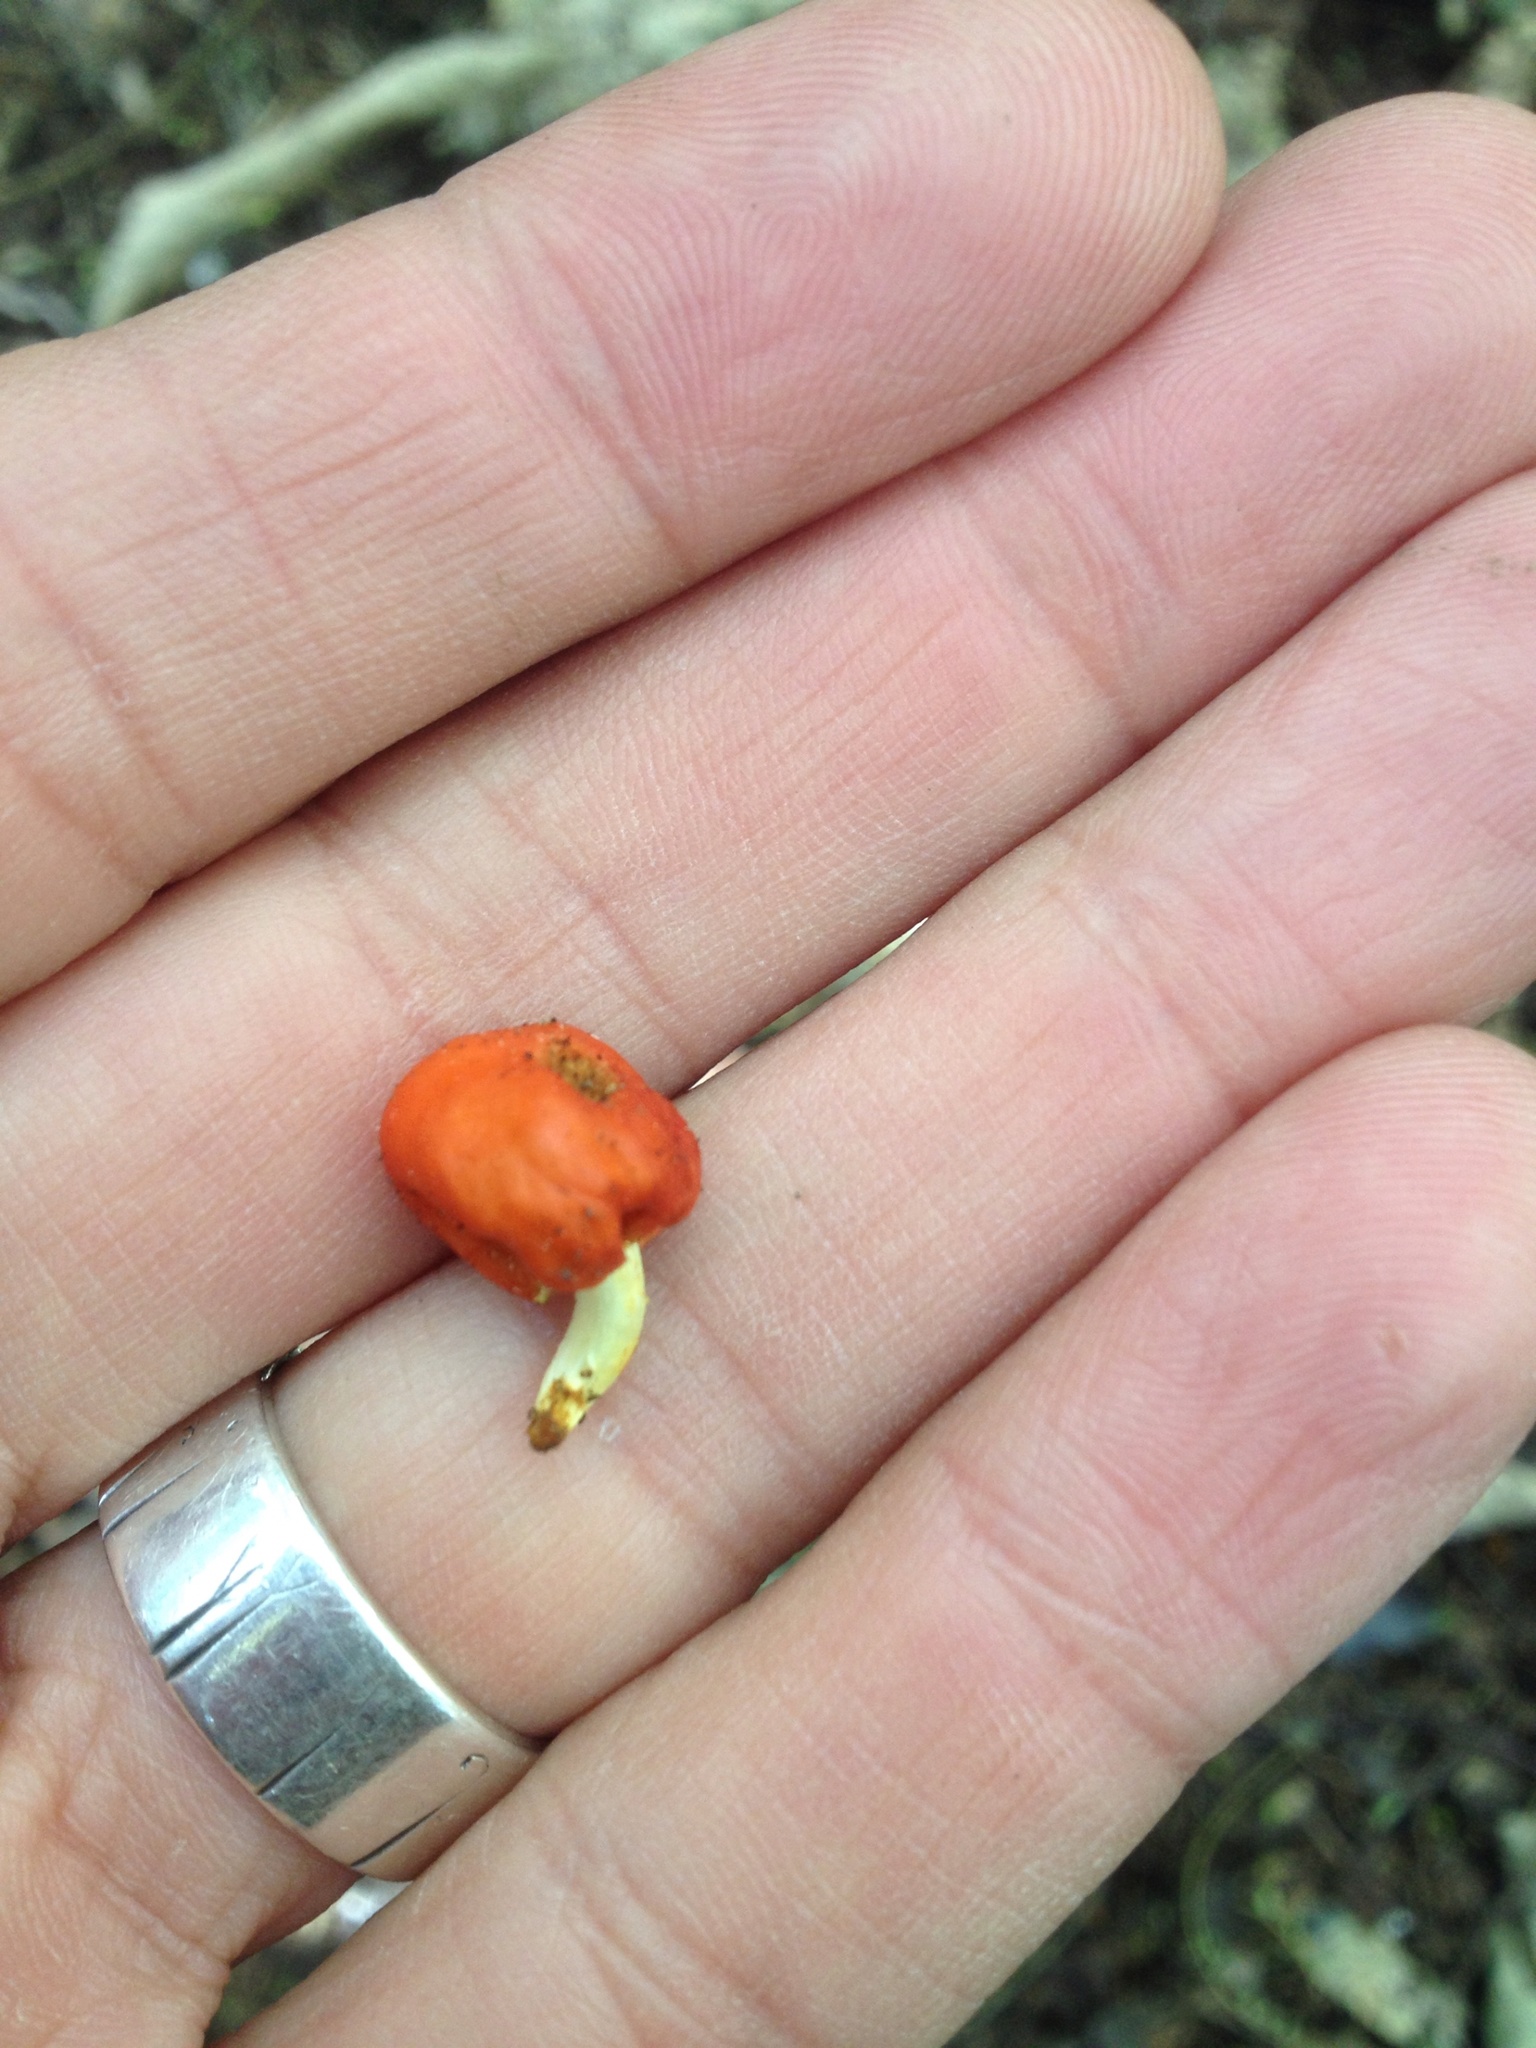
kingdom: Fungi
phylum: Basidiomycota
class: Agaricomycetes
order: Agaricales
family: Strophariaceae
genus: Leratiomyces
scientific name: Leratiomyces erythrocephalus
